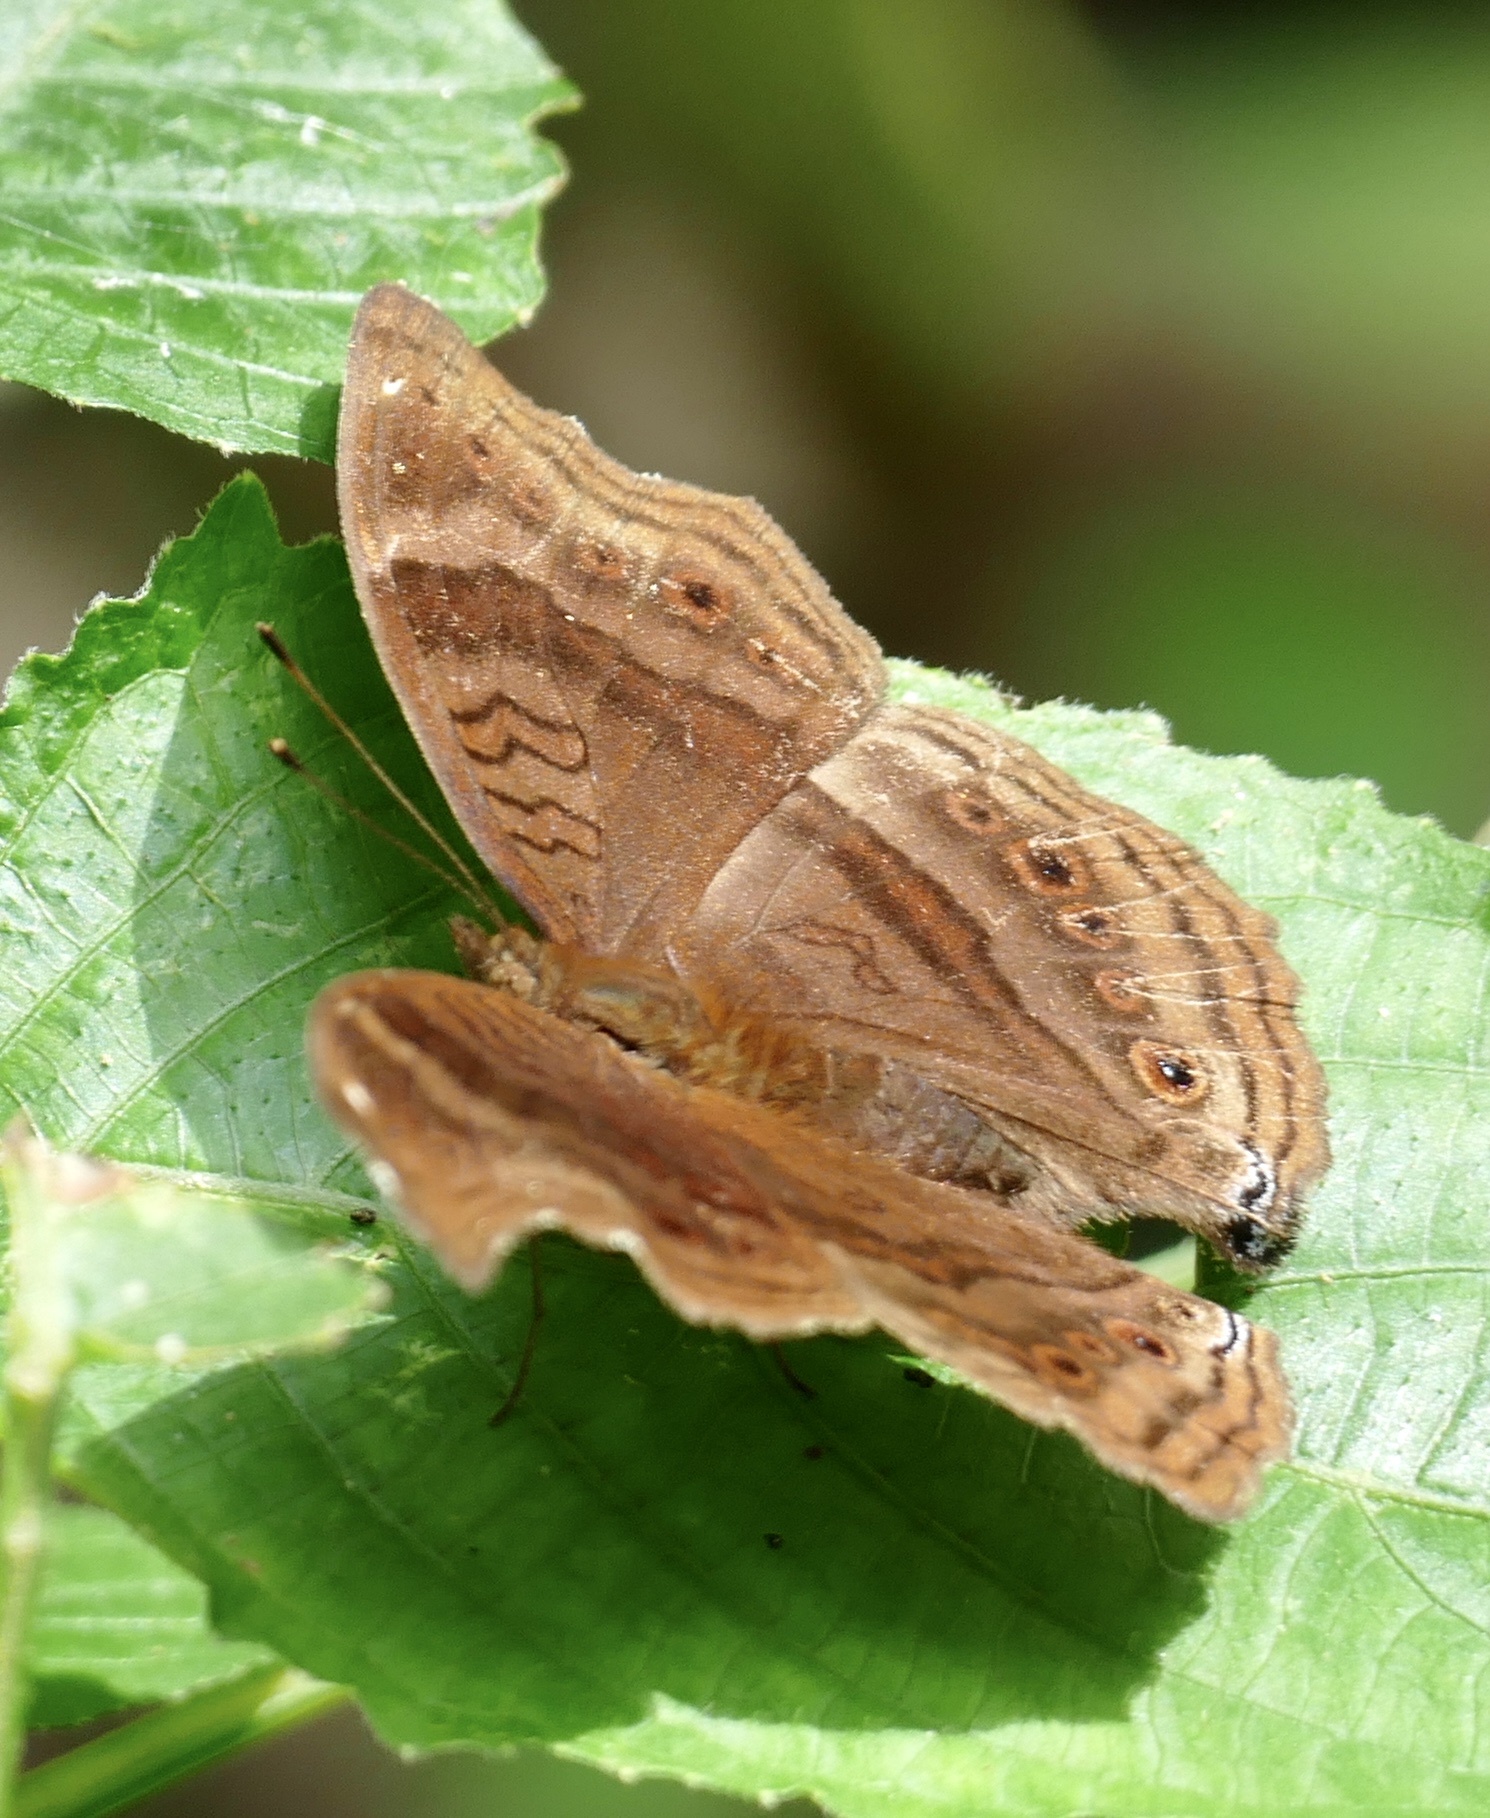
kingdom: Animalia
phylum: Arthropoda
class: Insecta
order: Lepidoptera
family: Nymphalidae
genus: Junonia
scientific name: Junonia stygia
